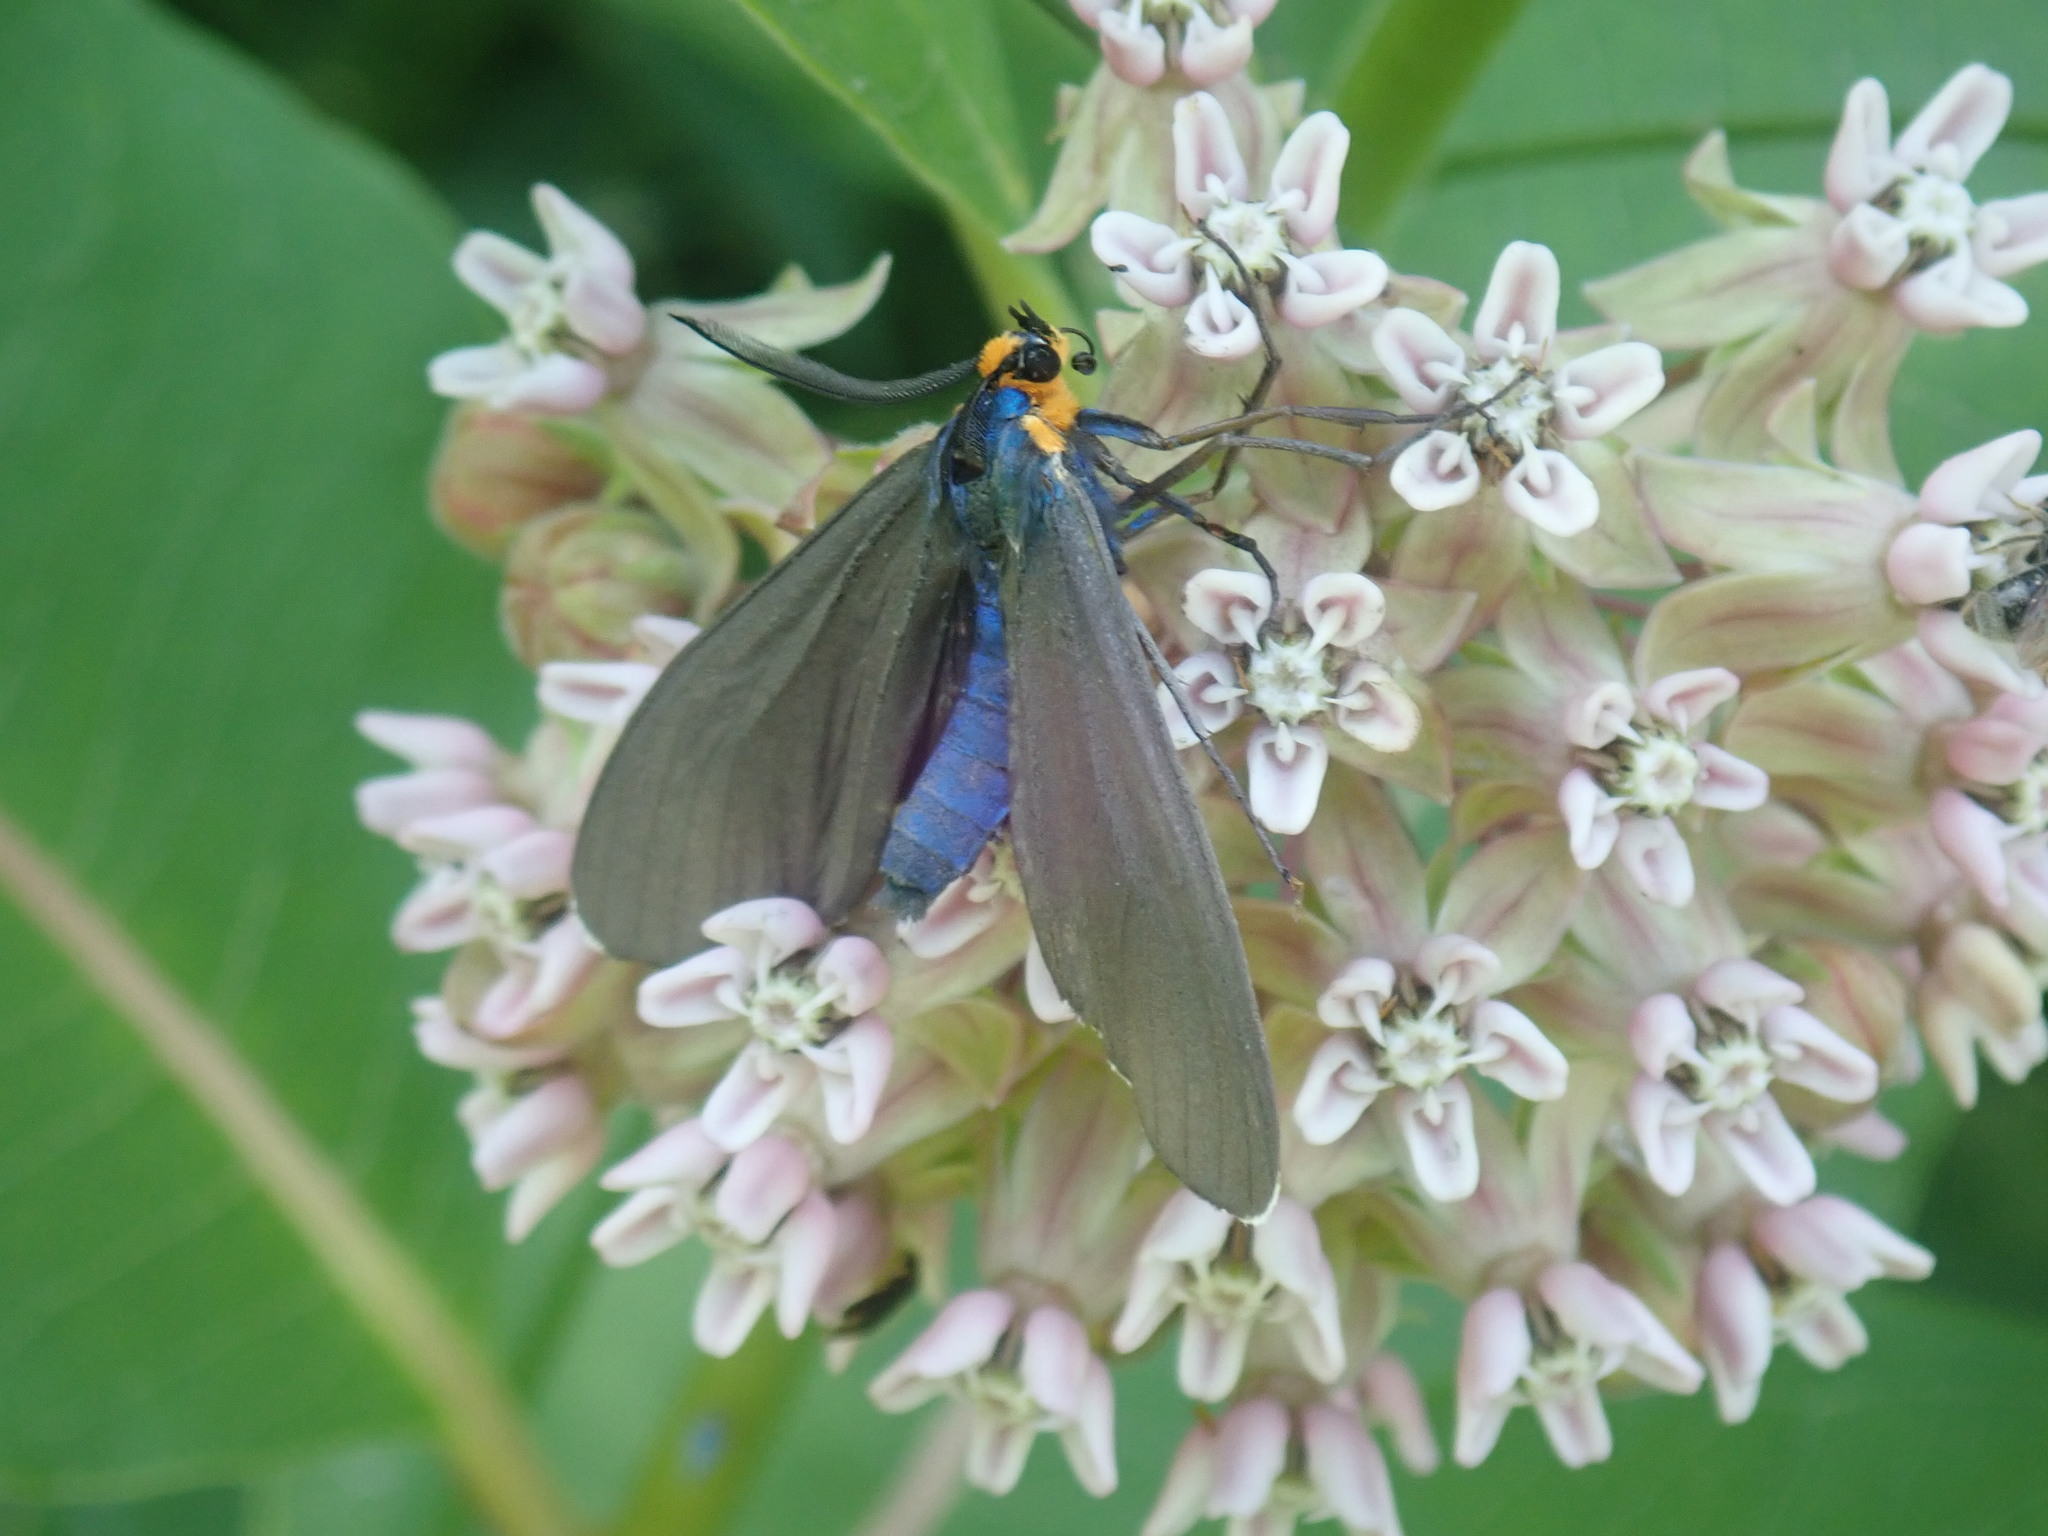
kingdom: Animalia
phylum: Arthropoda
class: Insecta
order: Lepidoptera
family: Erebidae
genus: Ctenucha
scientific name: Ctenucha virginica
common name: Virginia ctenucha moth
